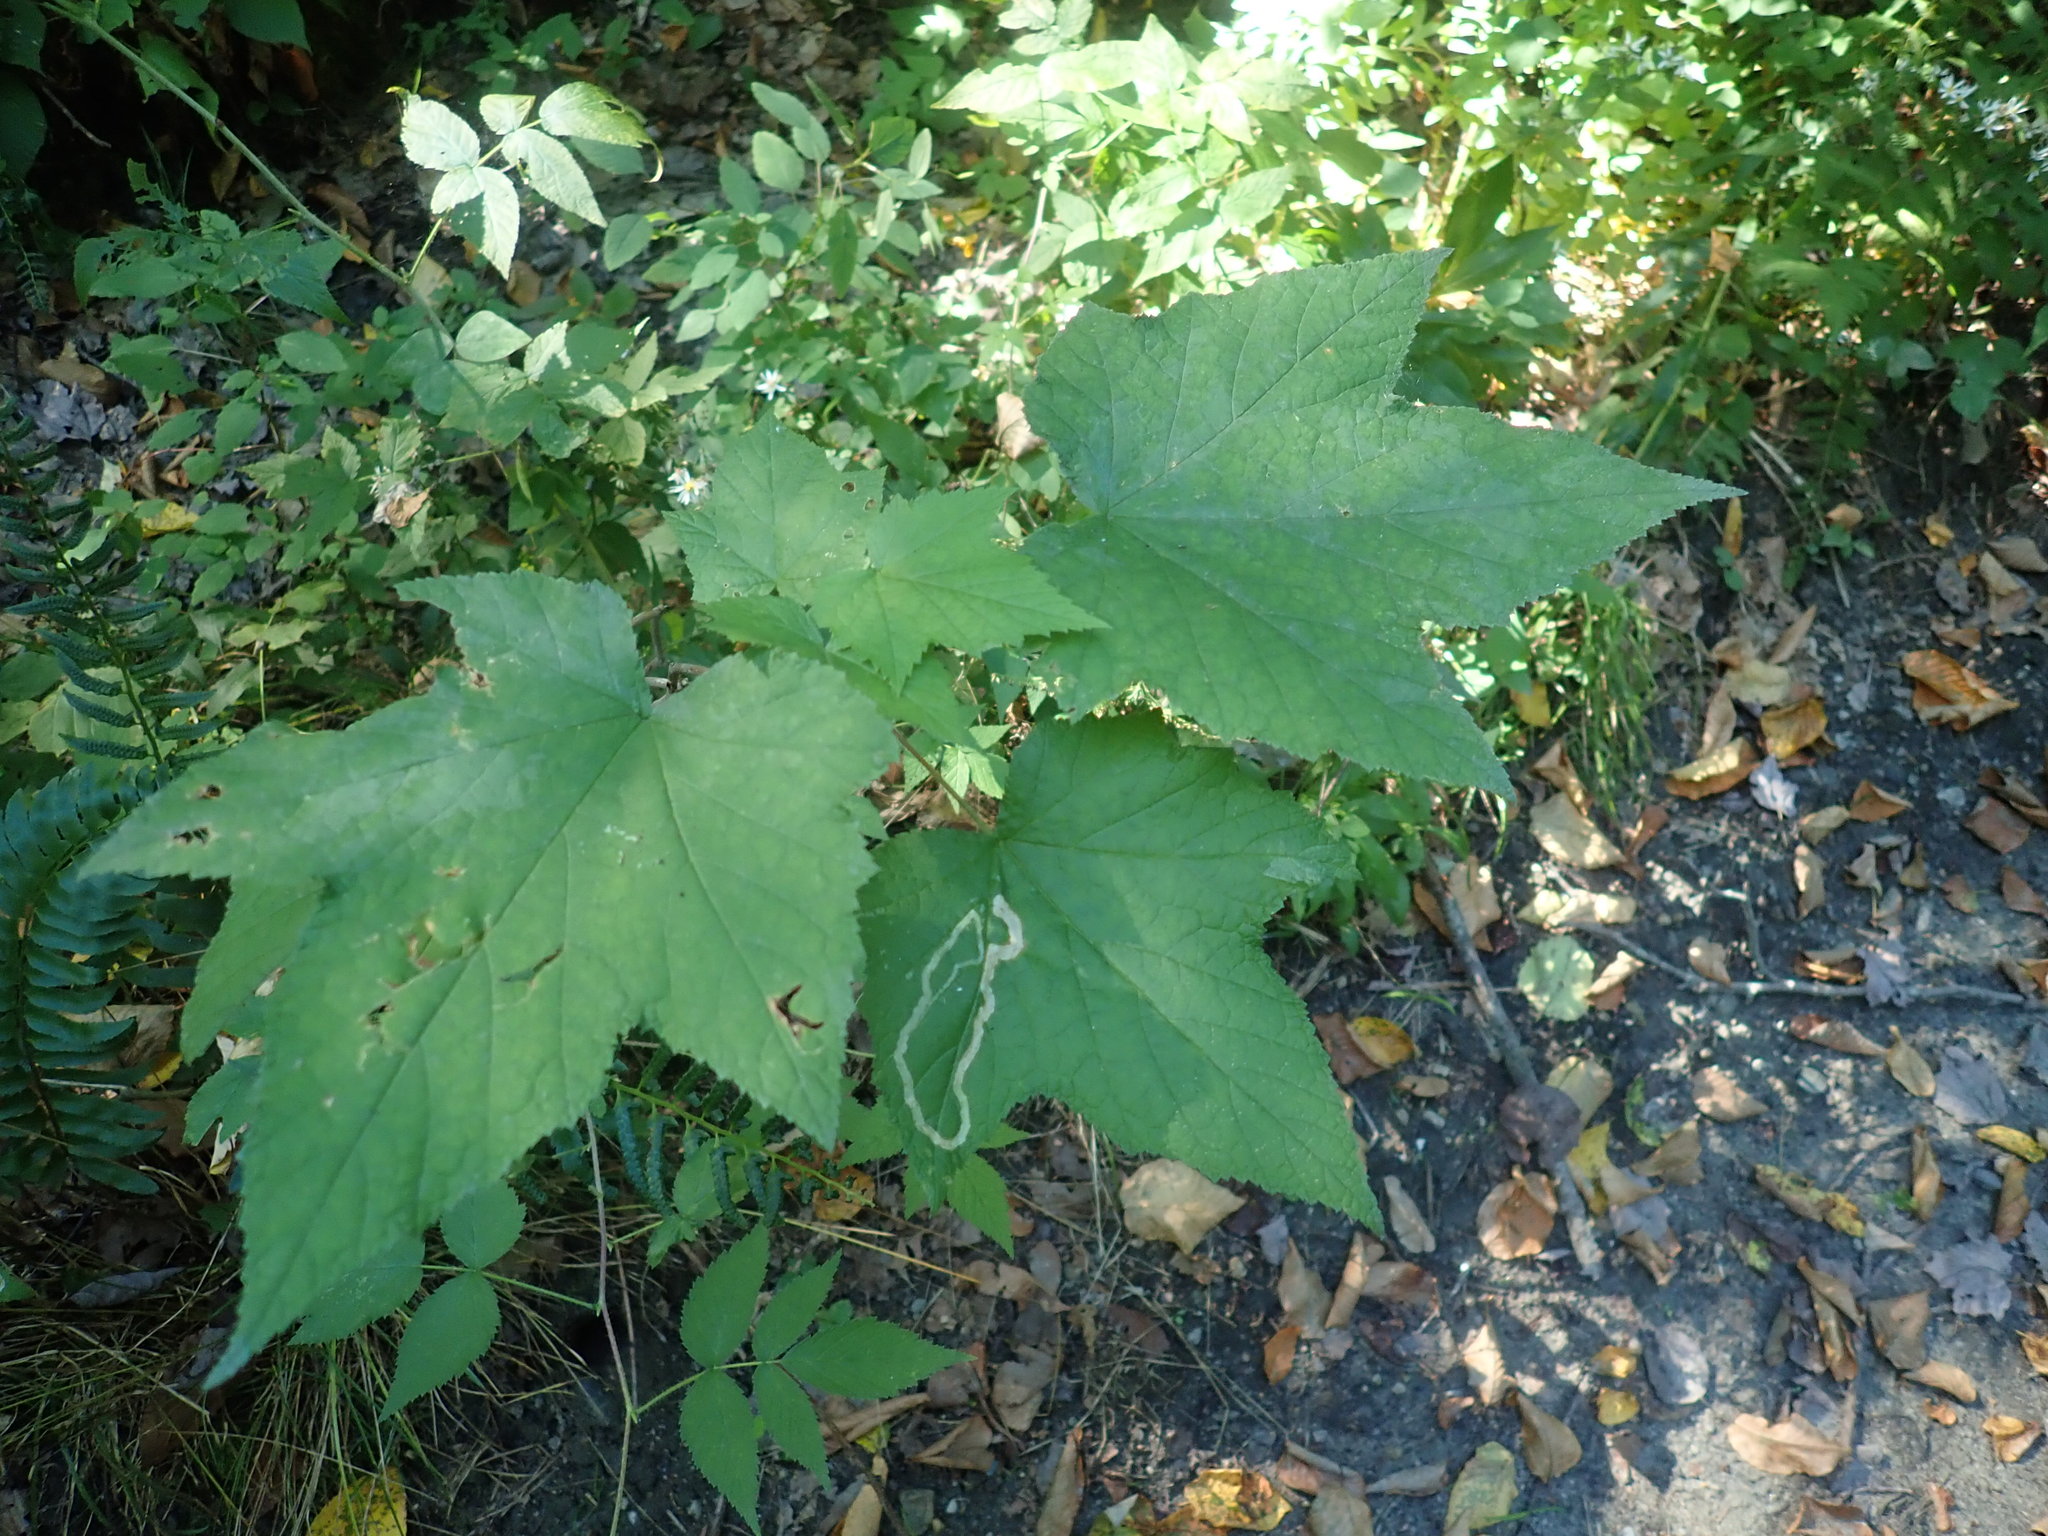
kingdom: Plantae
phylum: Tracheophyta
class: Magnoliopsida
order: Rosales
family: Rosaceae
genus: Rubus
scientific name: Rubus odoratus
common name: Purple-flowered raspberry
